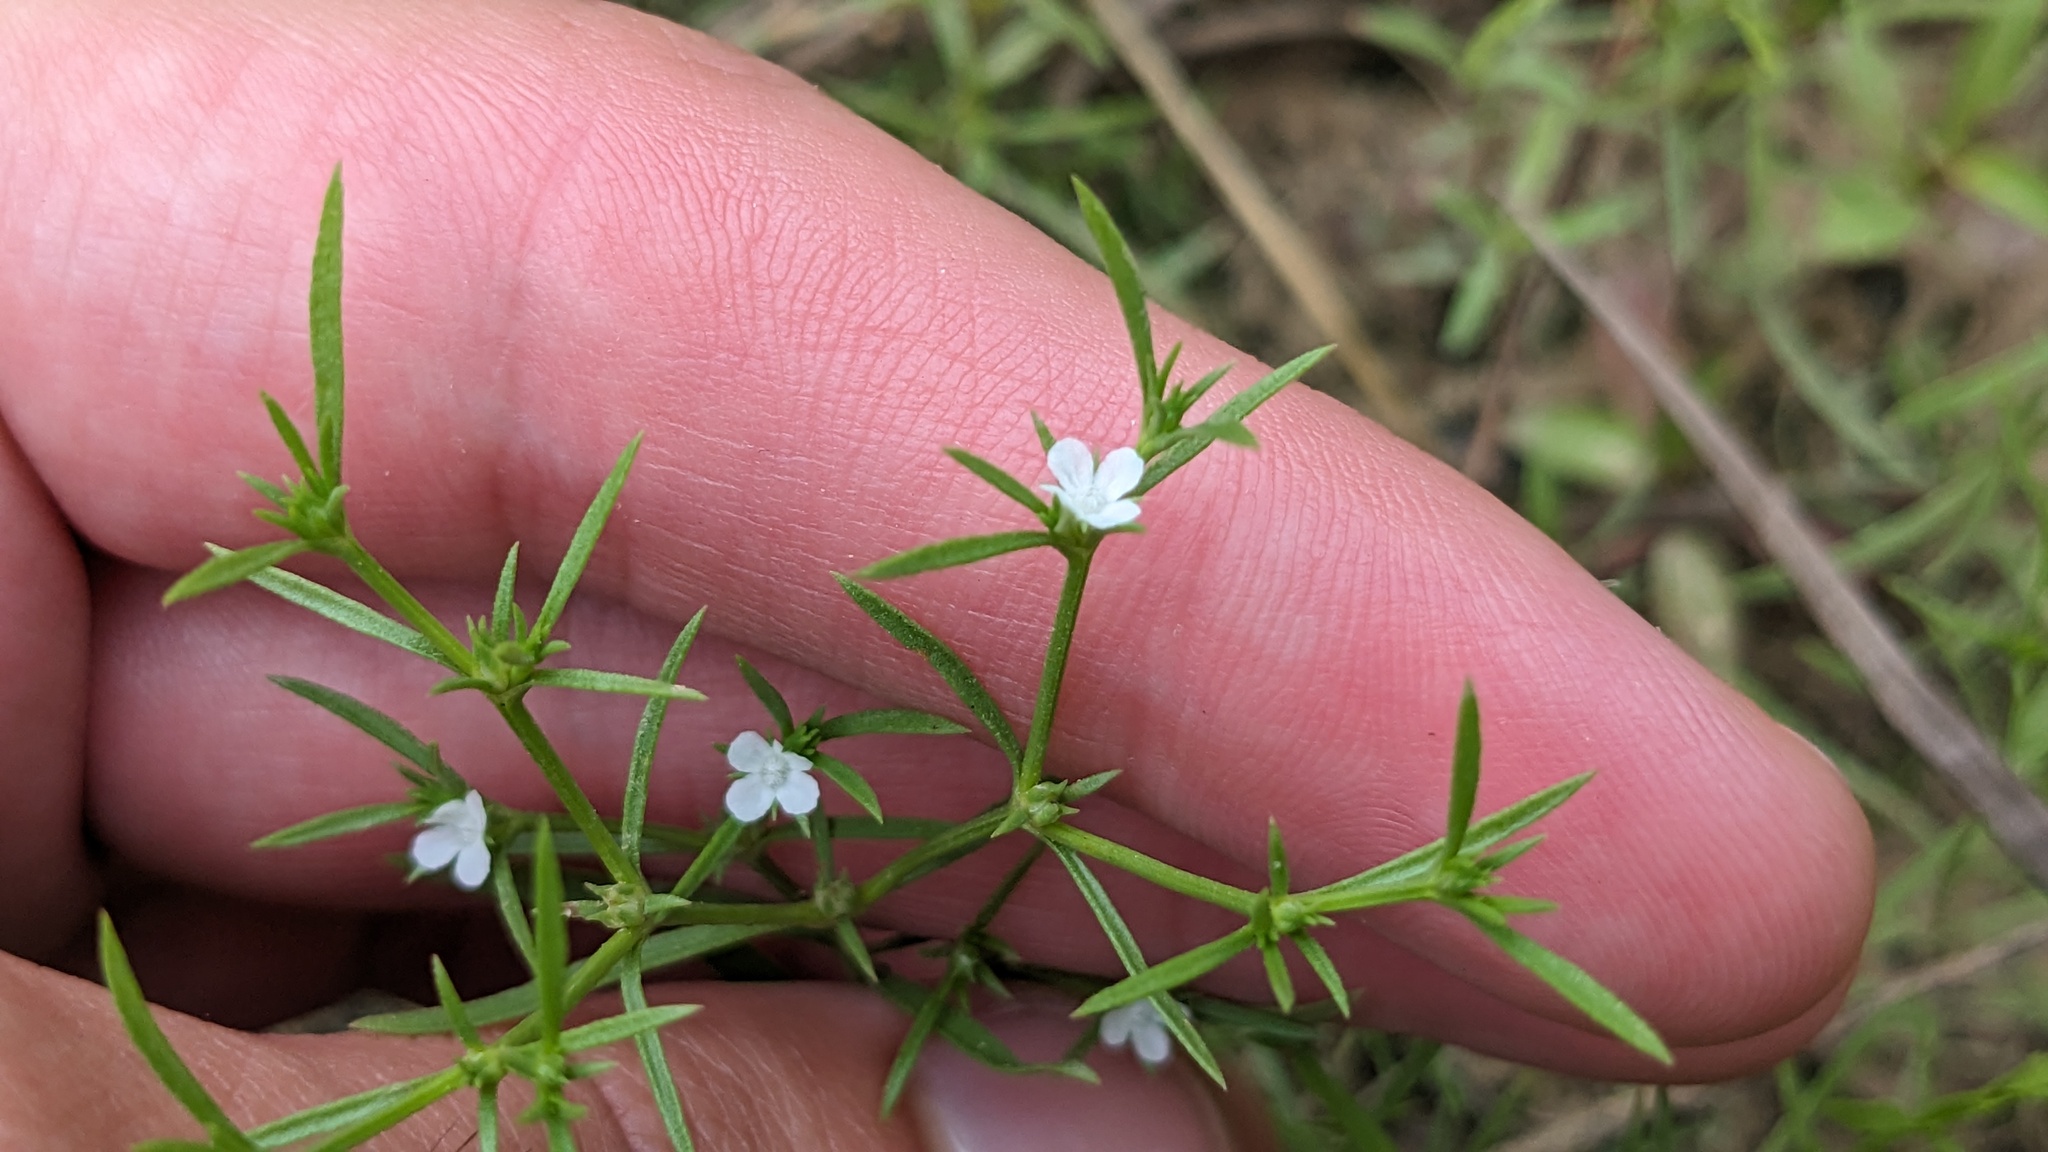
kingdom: Plantae
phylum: Tracheophyta
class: Magnoliopsida
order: Lamiales
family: Tetrachondraceae
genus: Polypremum
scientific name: Polypremum procumbens
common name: Juniper-leaf
